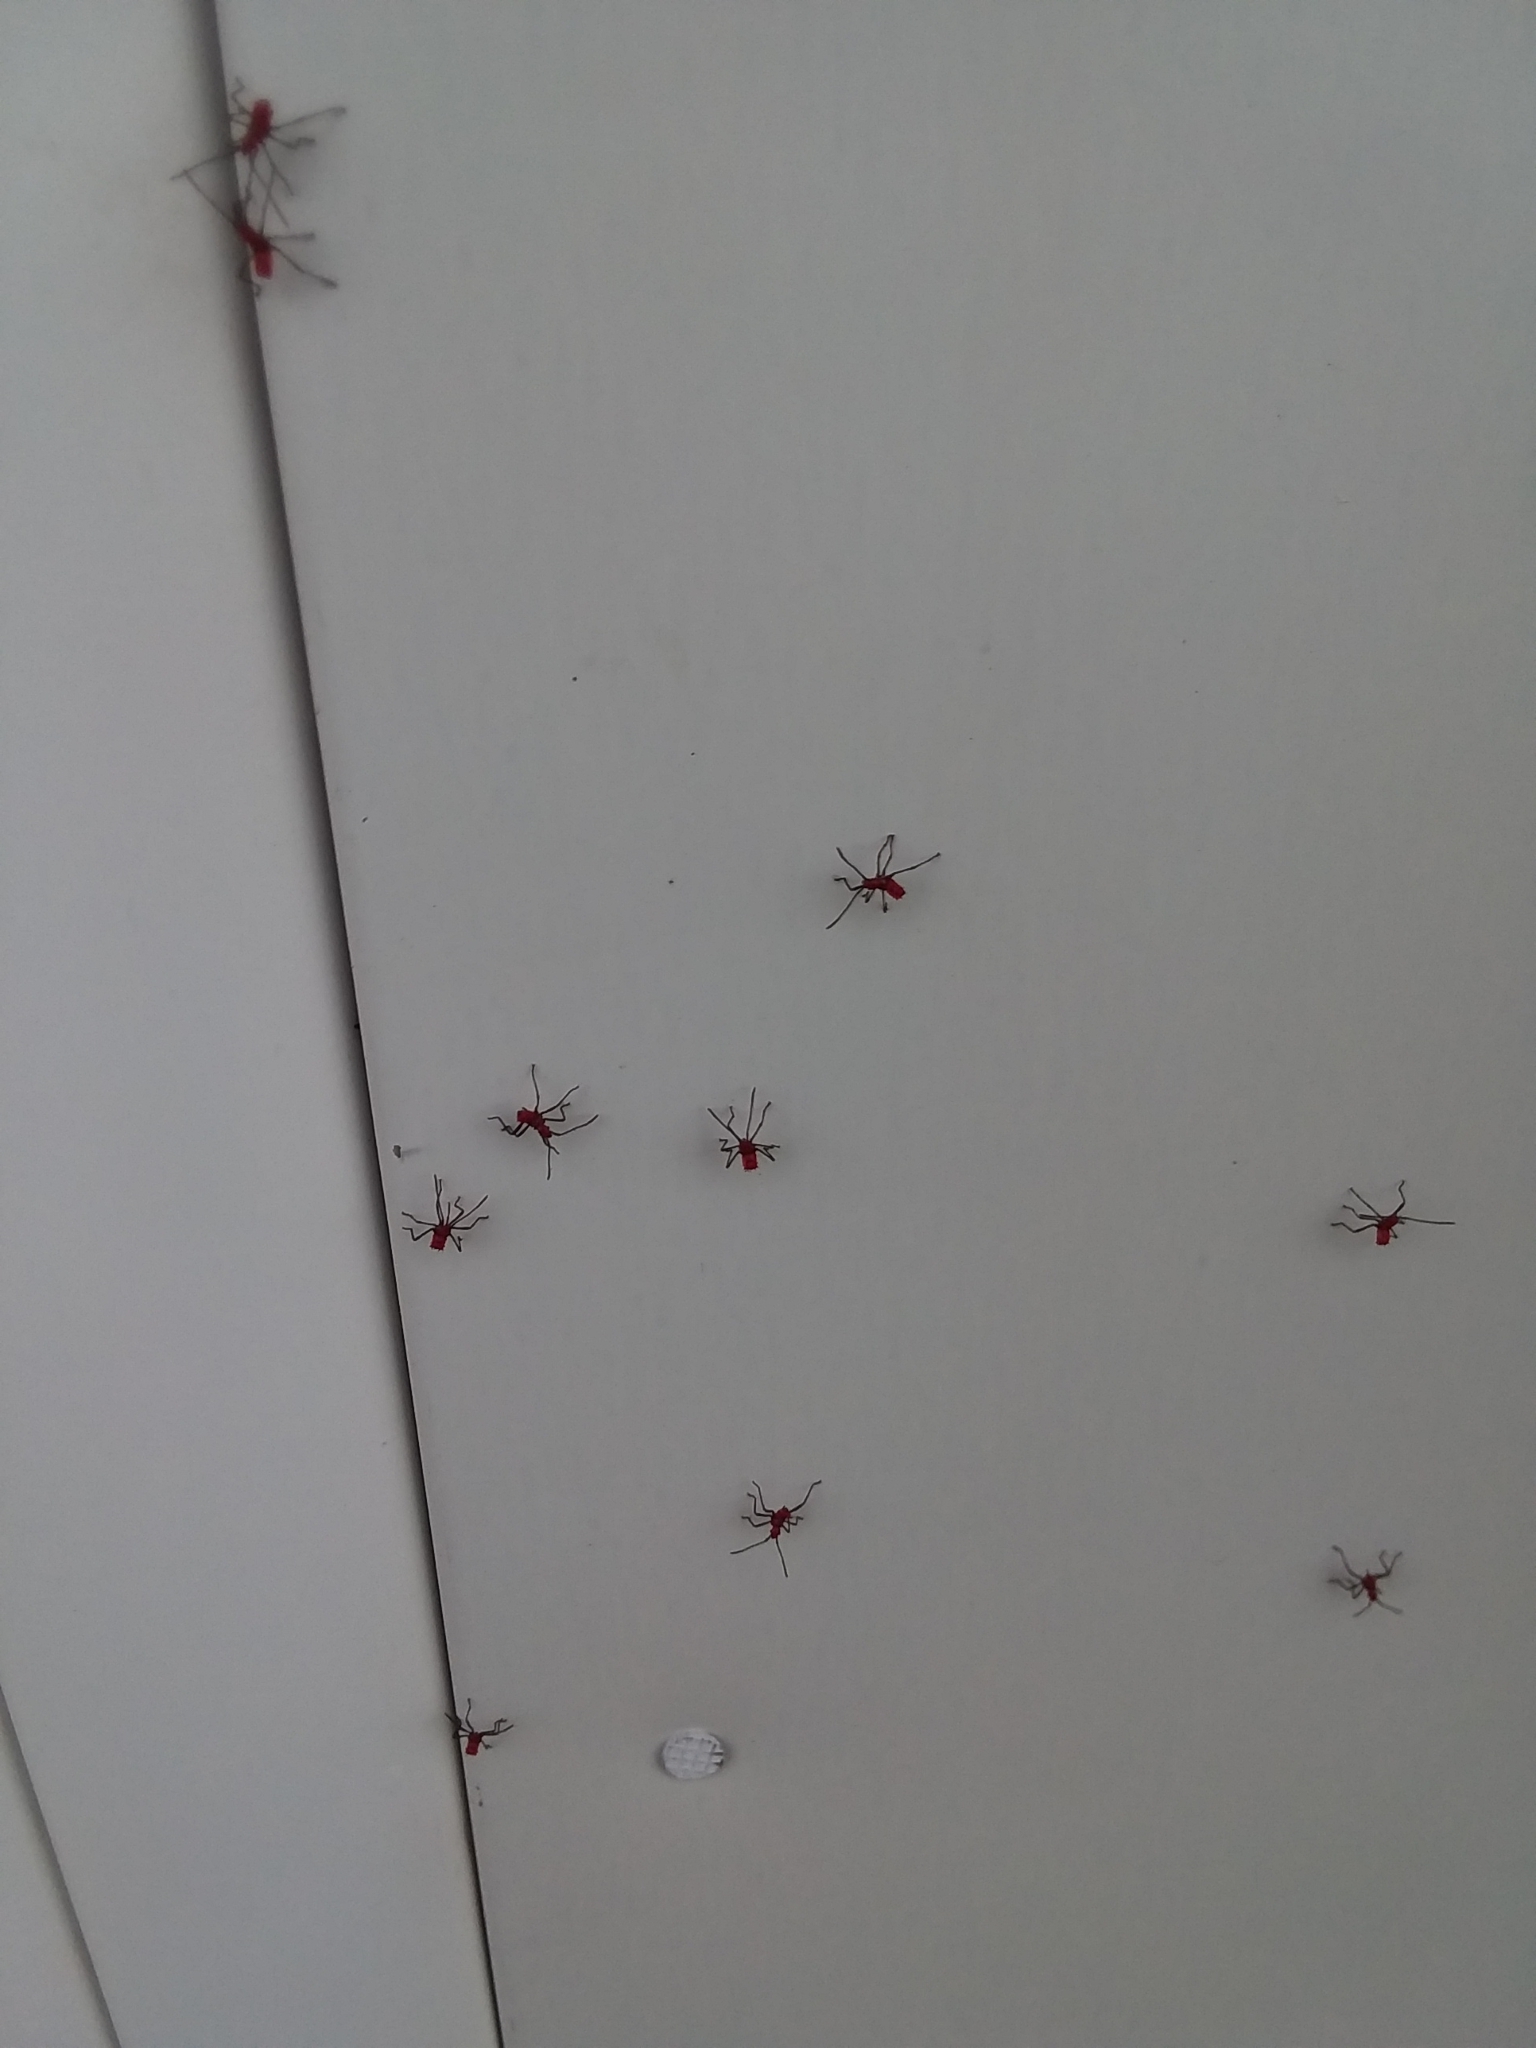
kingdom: Animalia
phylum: Arthropoda
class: Insecta
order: Hemiptera
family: Reduviidae
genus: Arilus
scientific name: Arilus cristatus
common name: North american wheel bug
